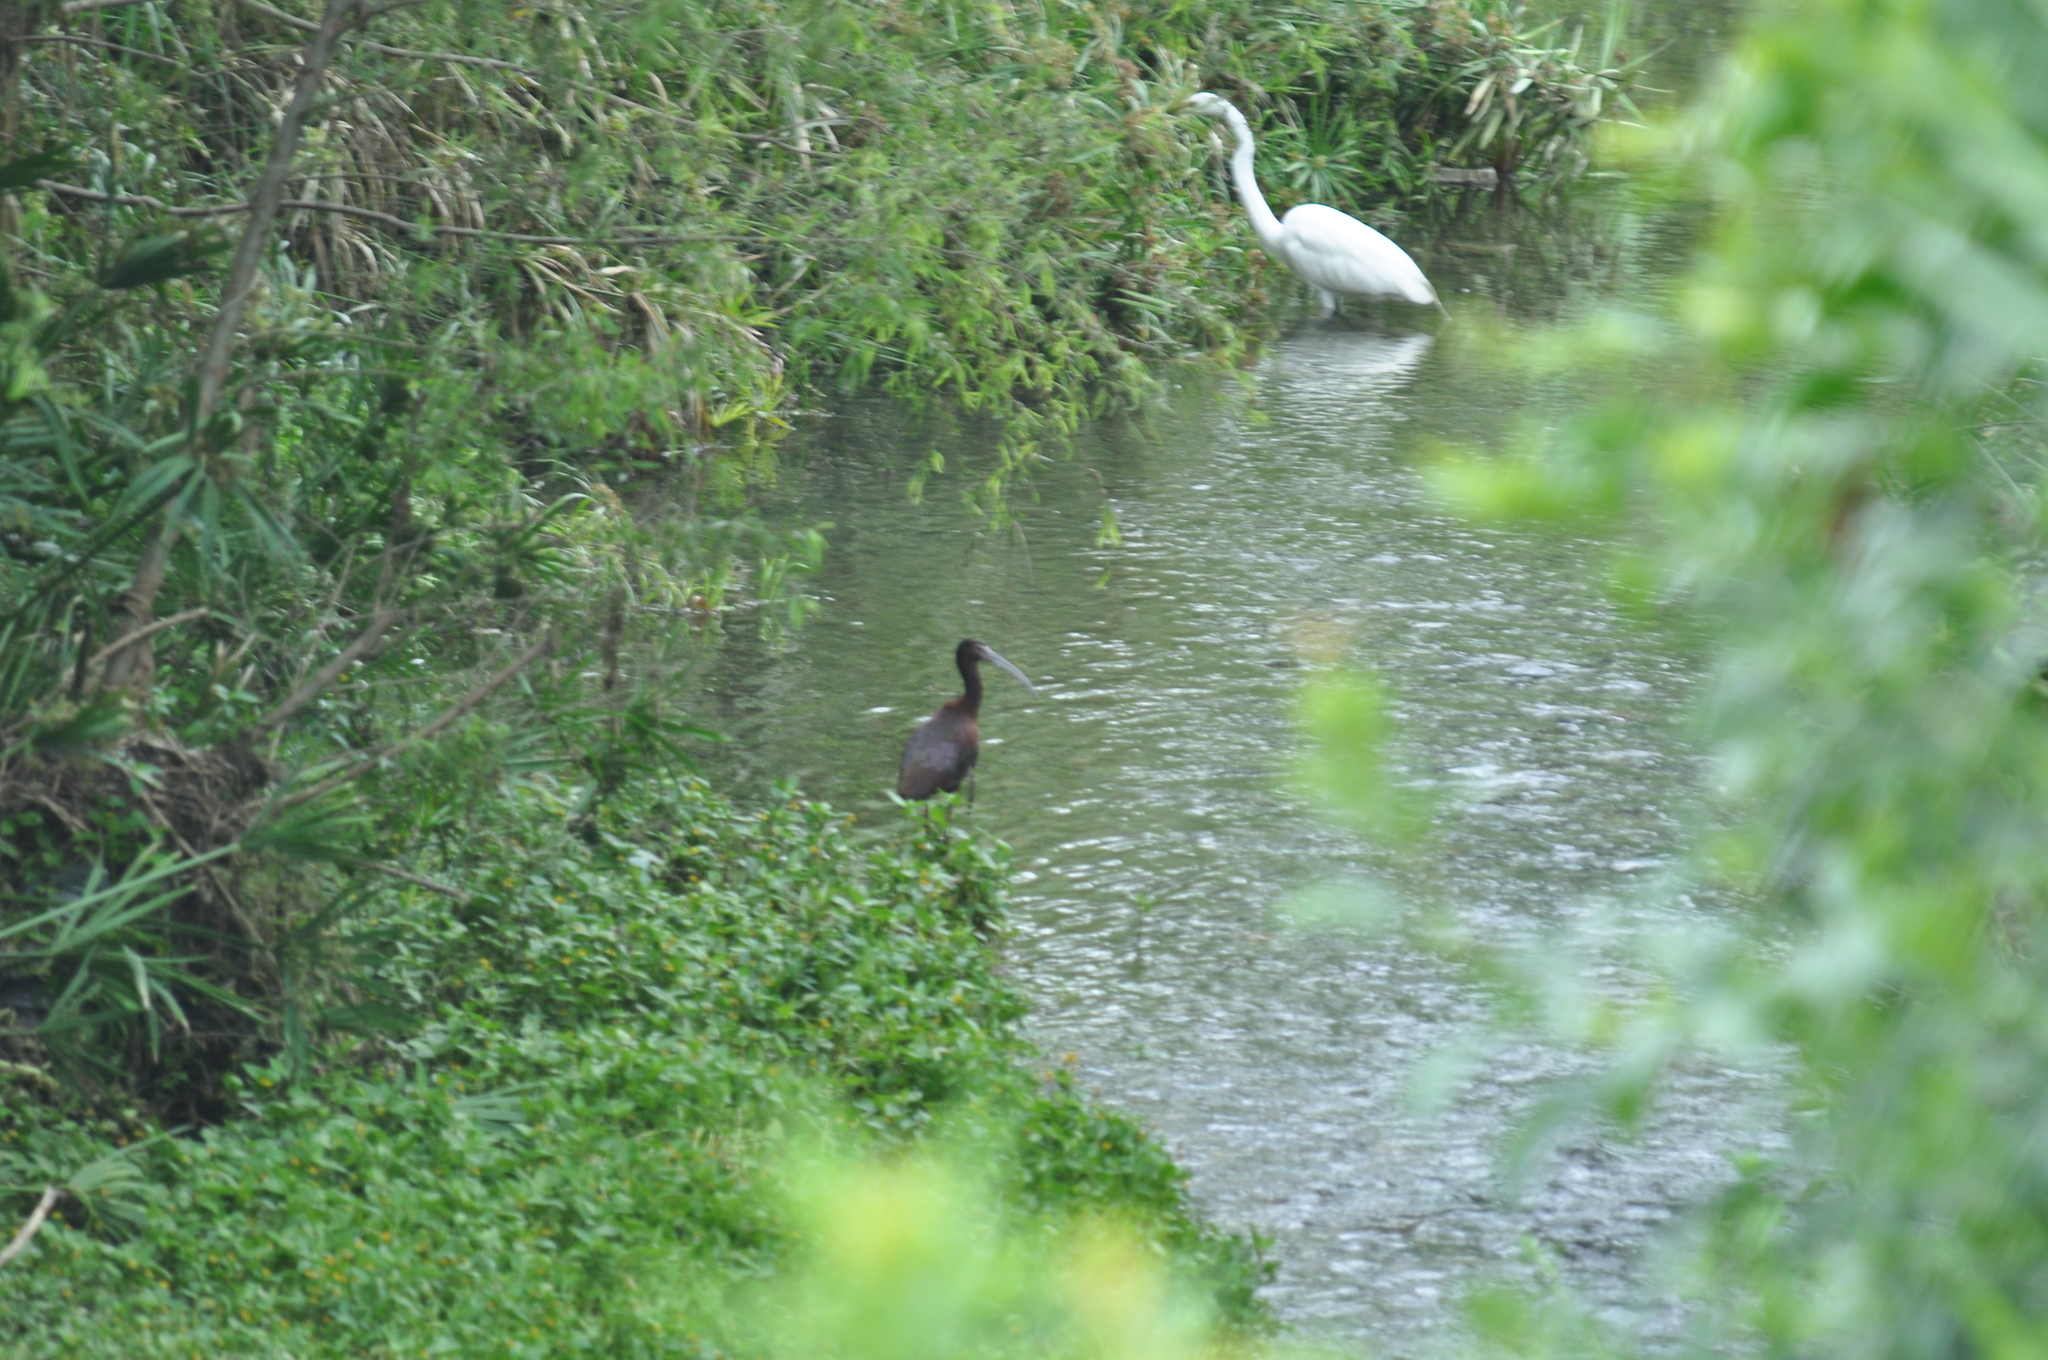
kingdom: Animalia
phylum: Chordata
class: Aves
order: Pelecaniformes
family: Threskiornithidae
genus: Plegadis
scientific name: Plegadis chihi
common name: White-faced ibis
